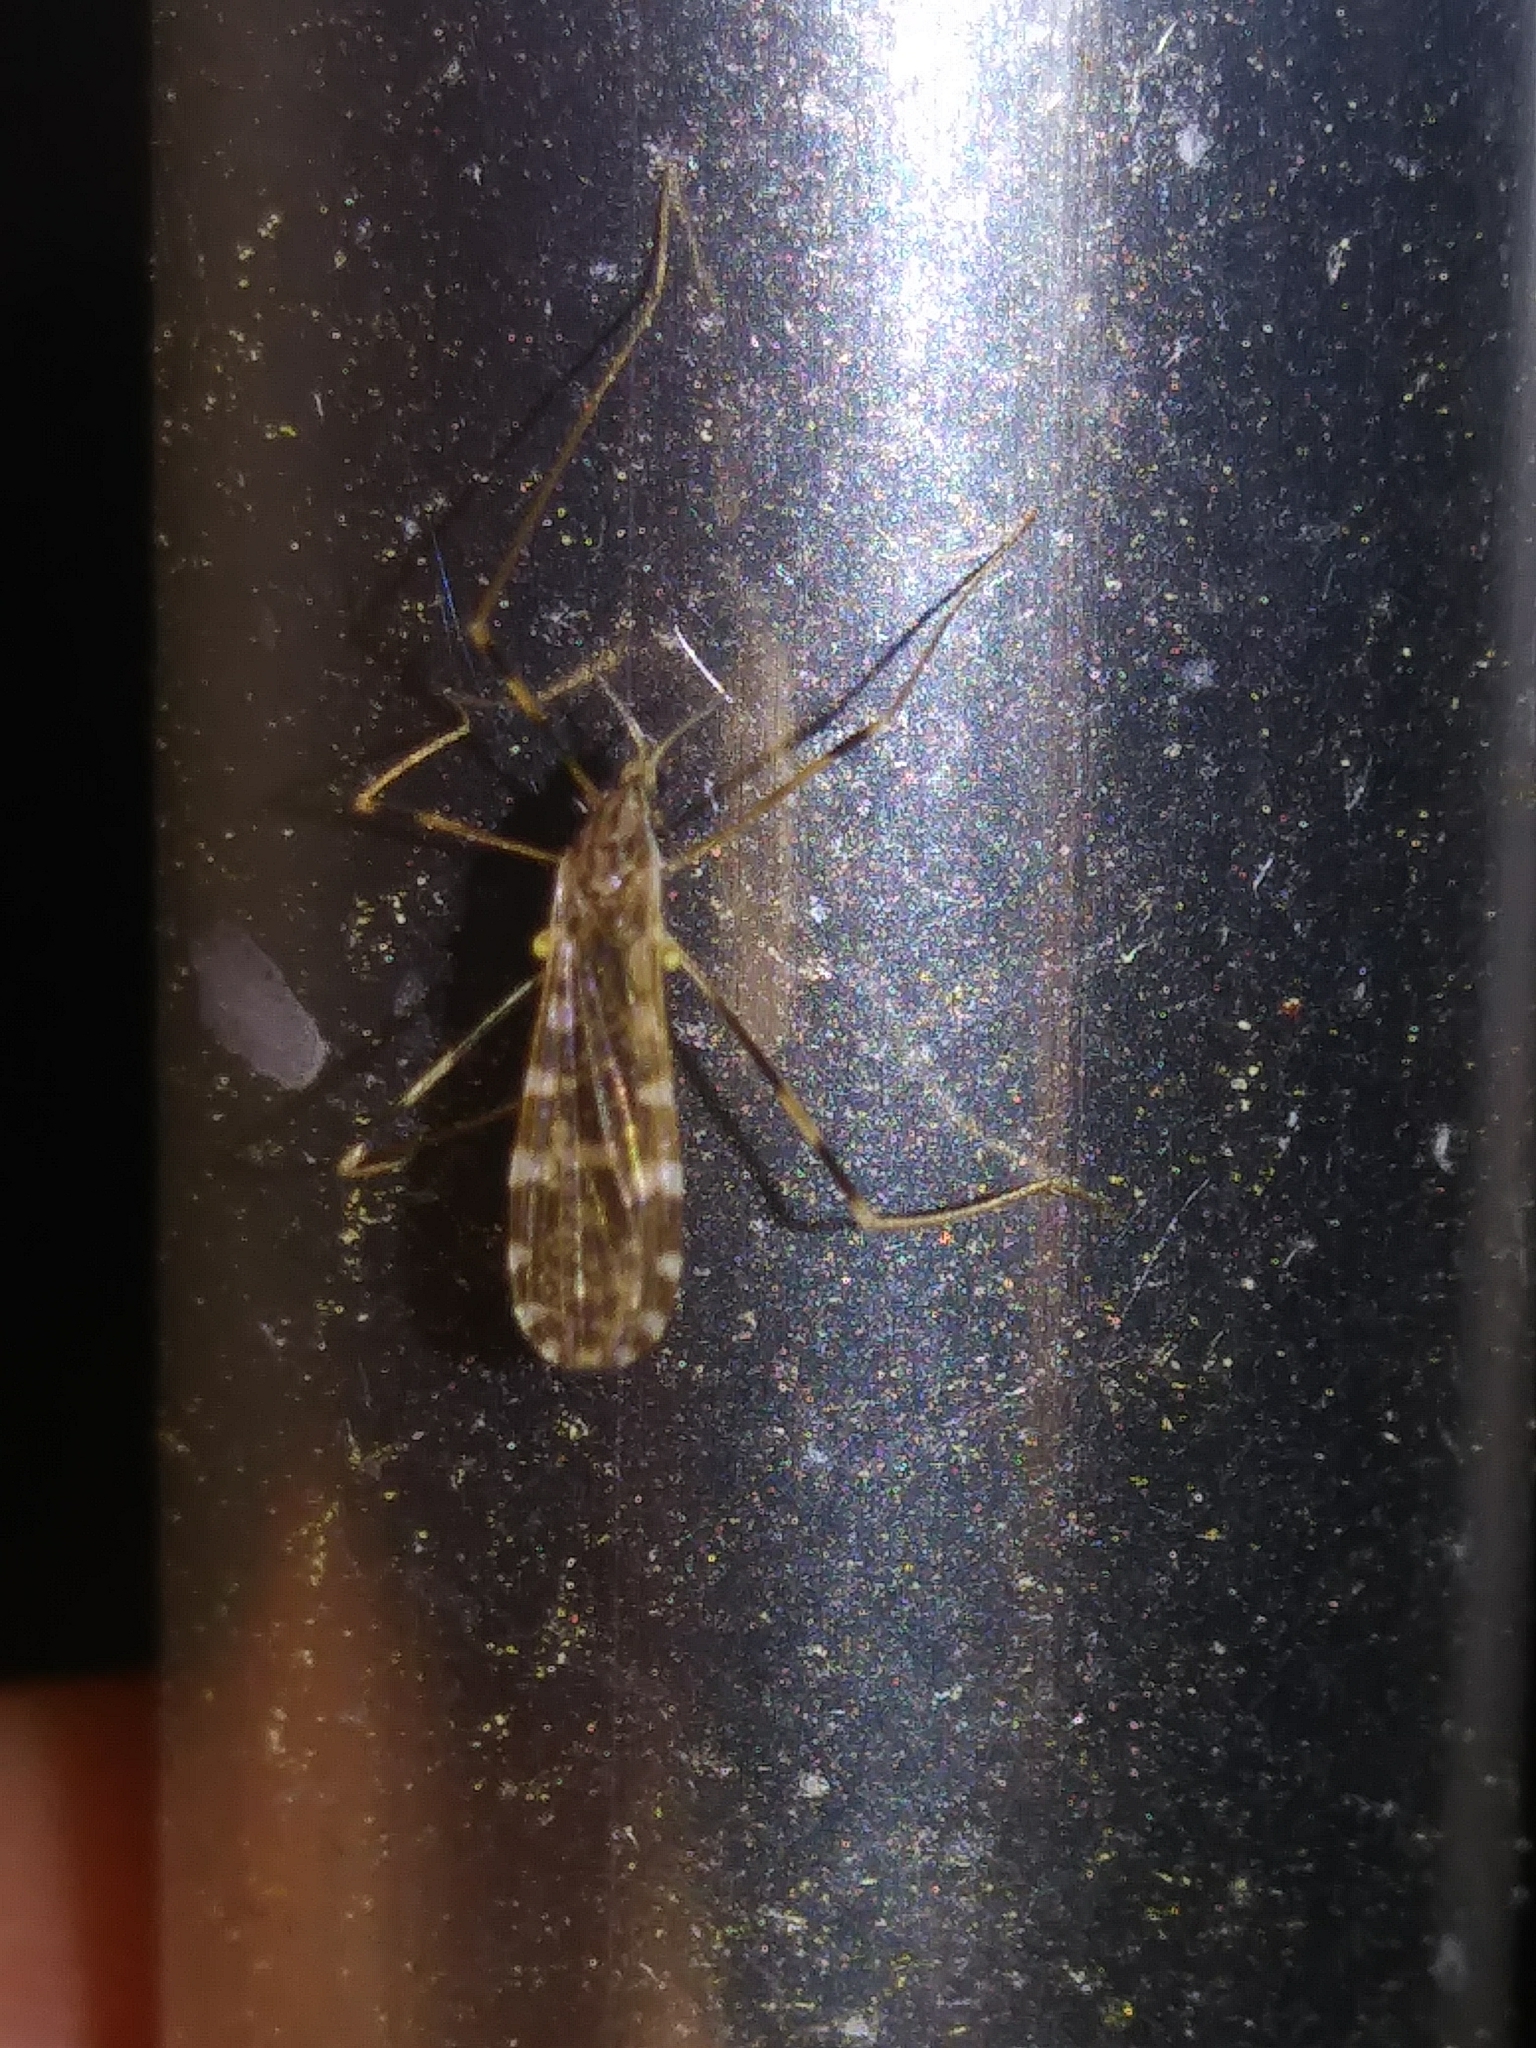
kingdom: Animalia
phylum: Arthropoda
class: Insecta
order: Diptera
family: Limoniidae
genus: Erioptera
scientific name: Erioptera caliptera
